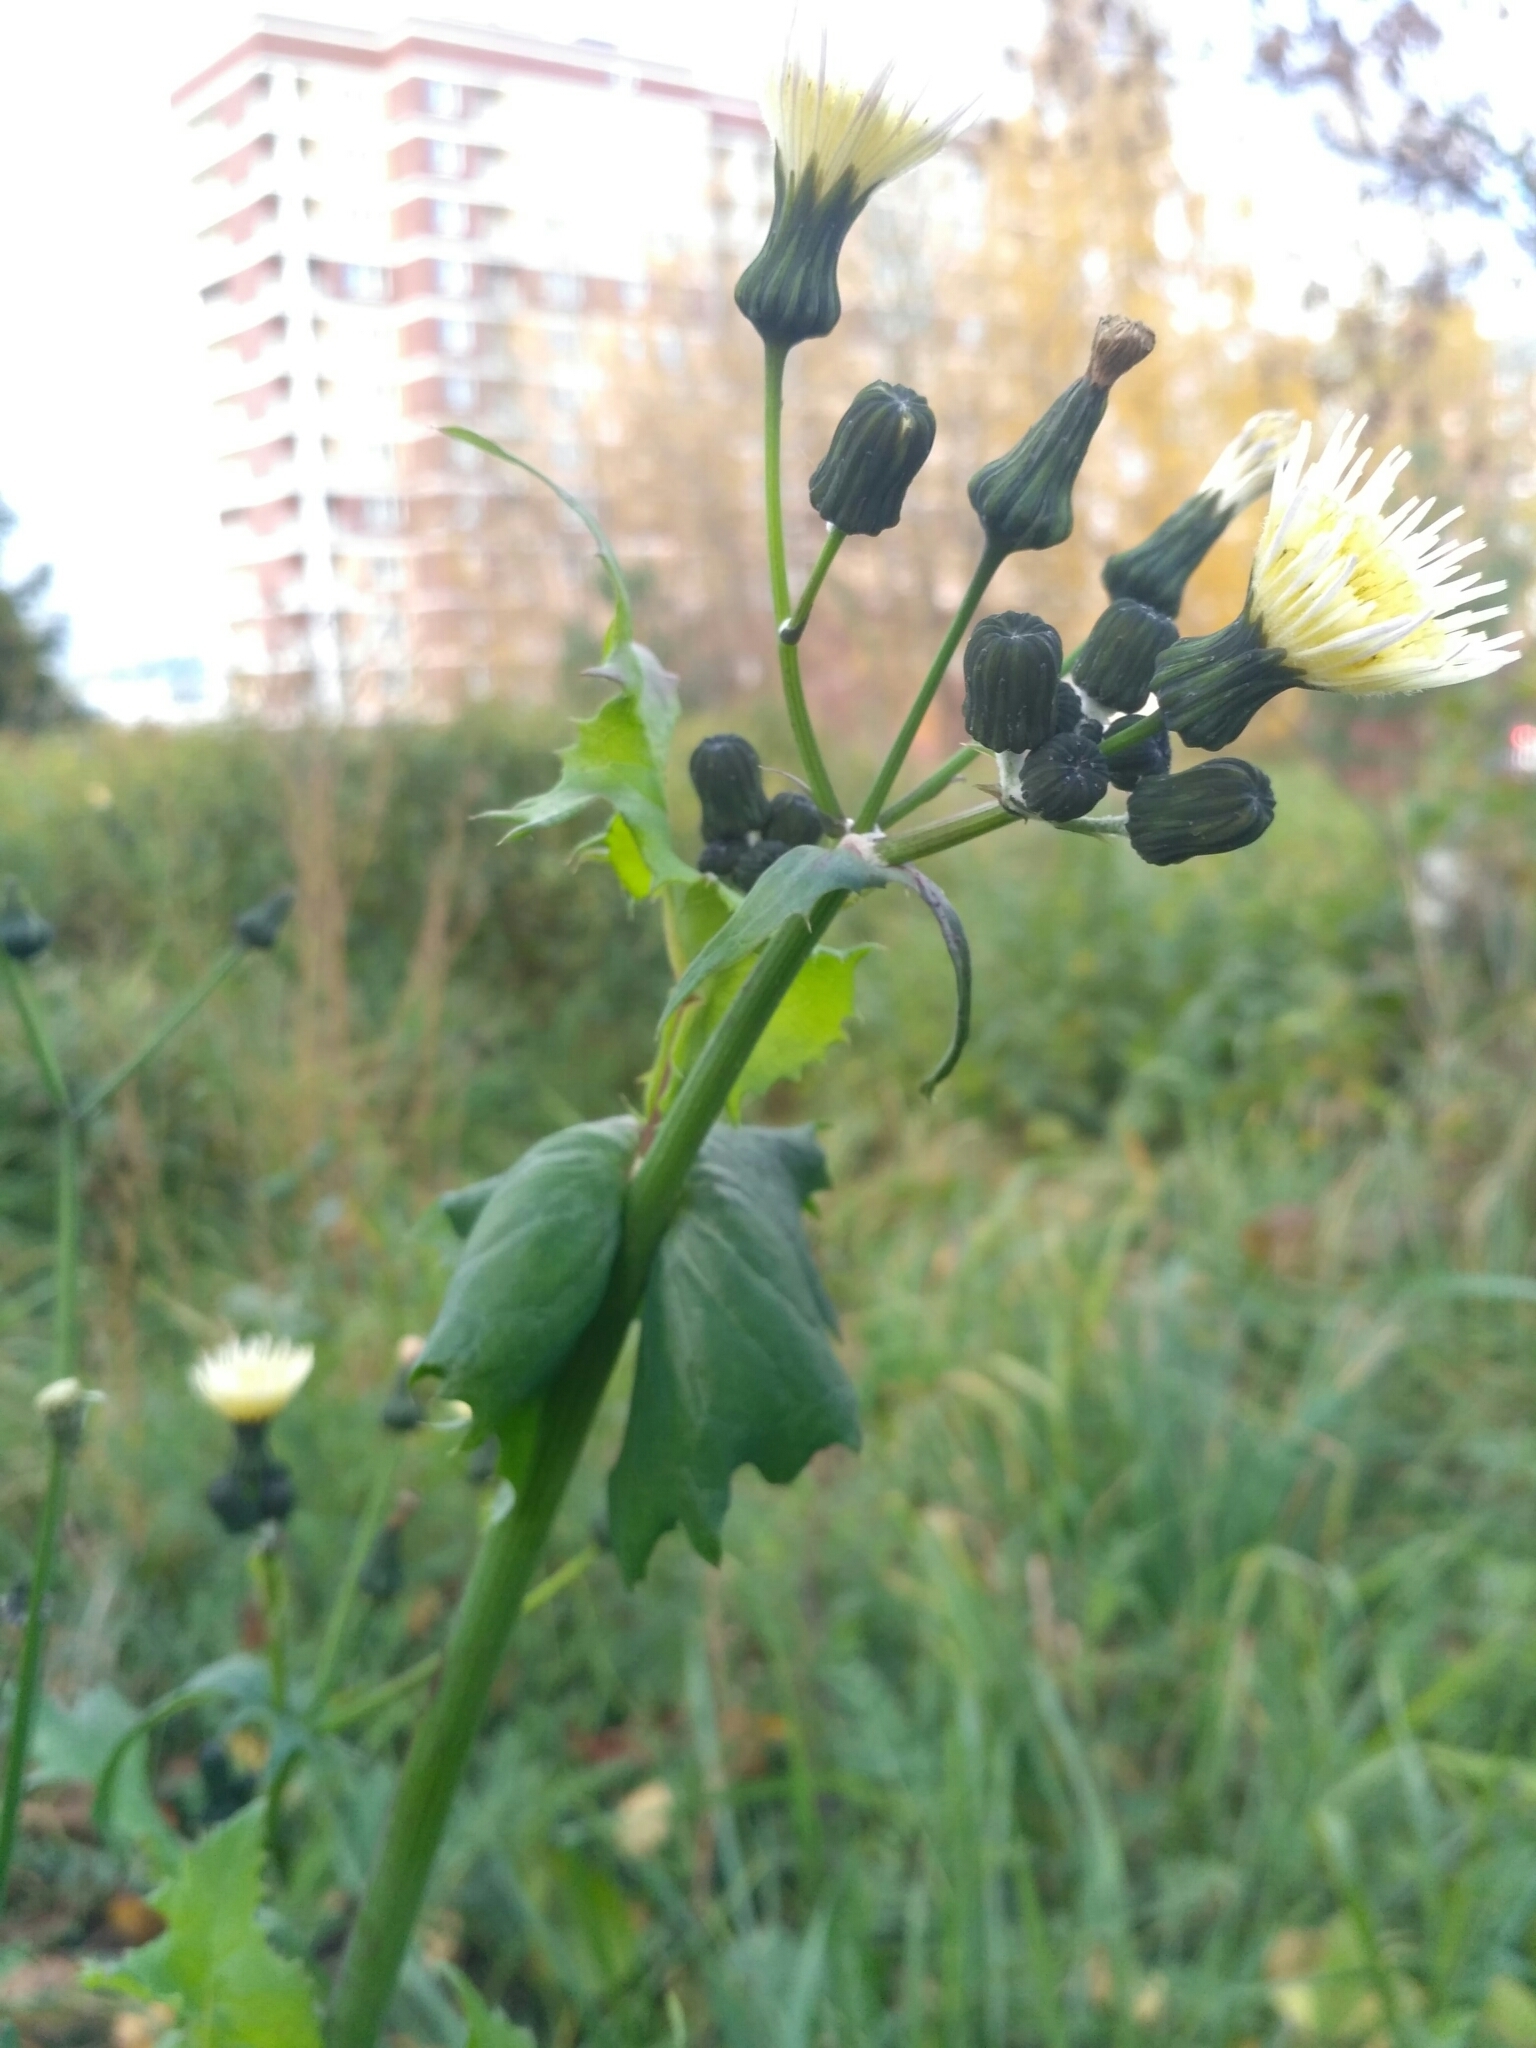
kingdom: Plantae
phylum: Tracheophyta
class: Magnoliopsida
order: Asterales
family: Asteraceae
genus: Sonchus
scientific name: Sonchus oleraceus
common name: Common sowthistle
